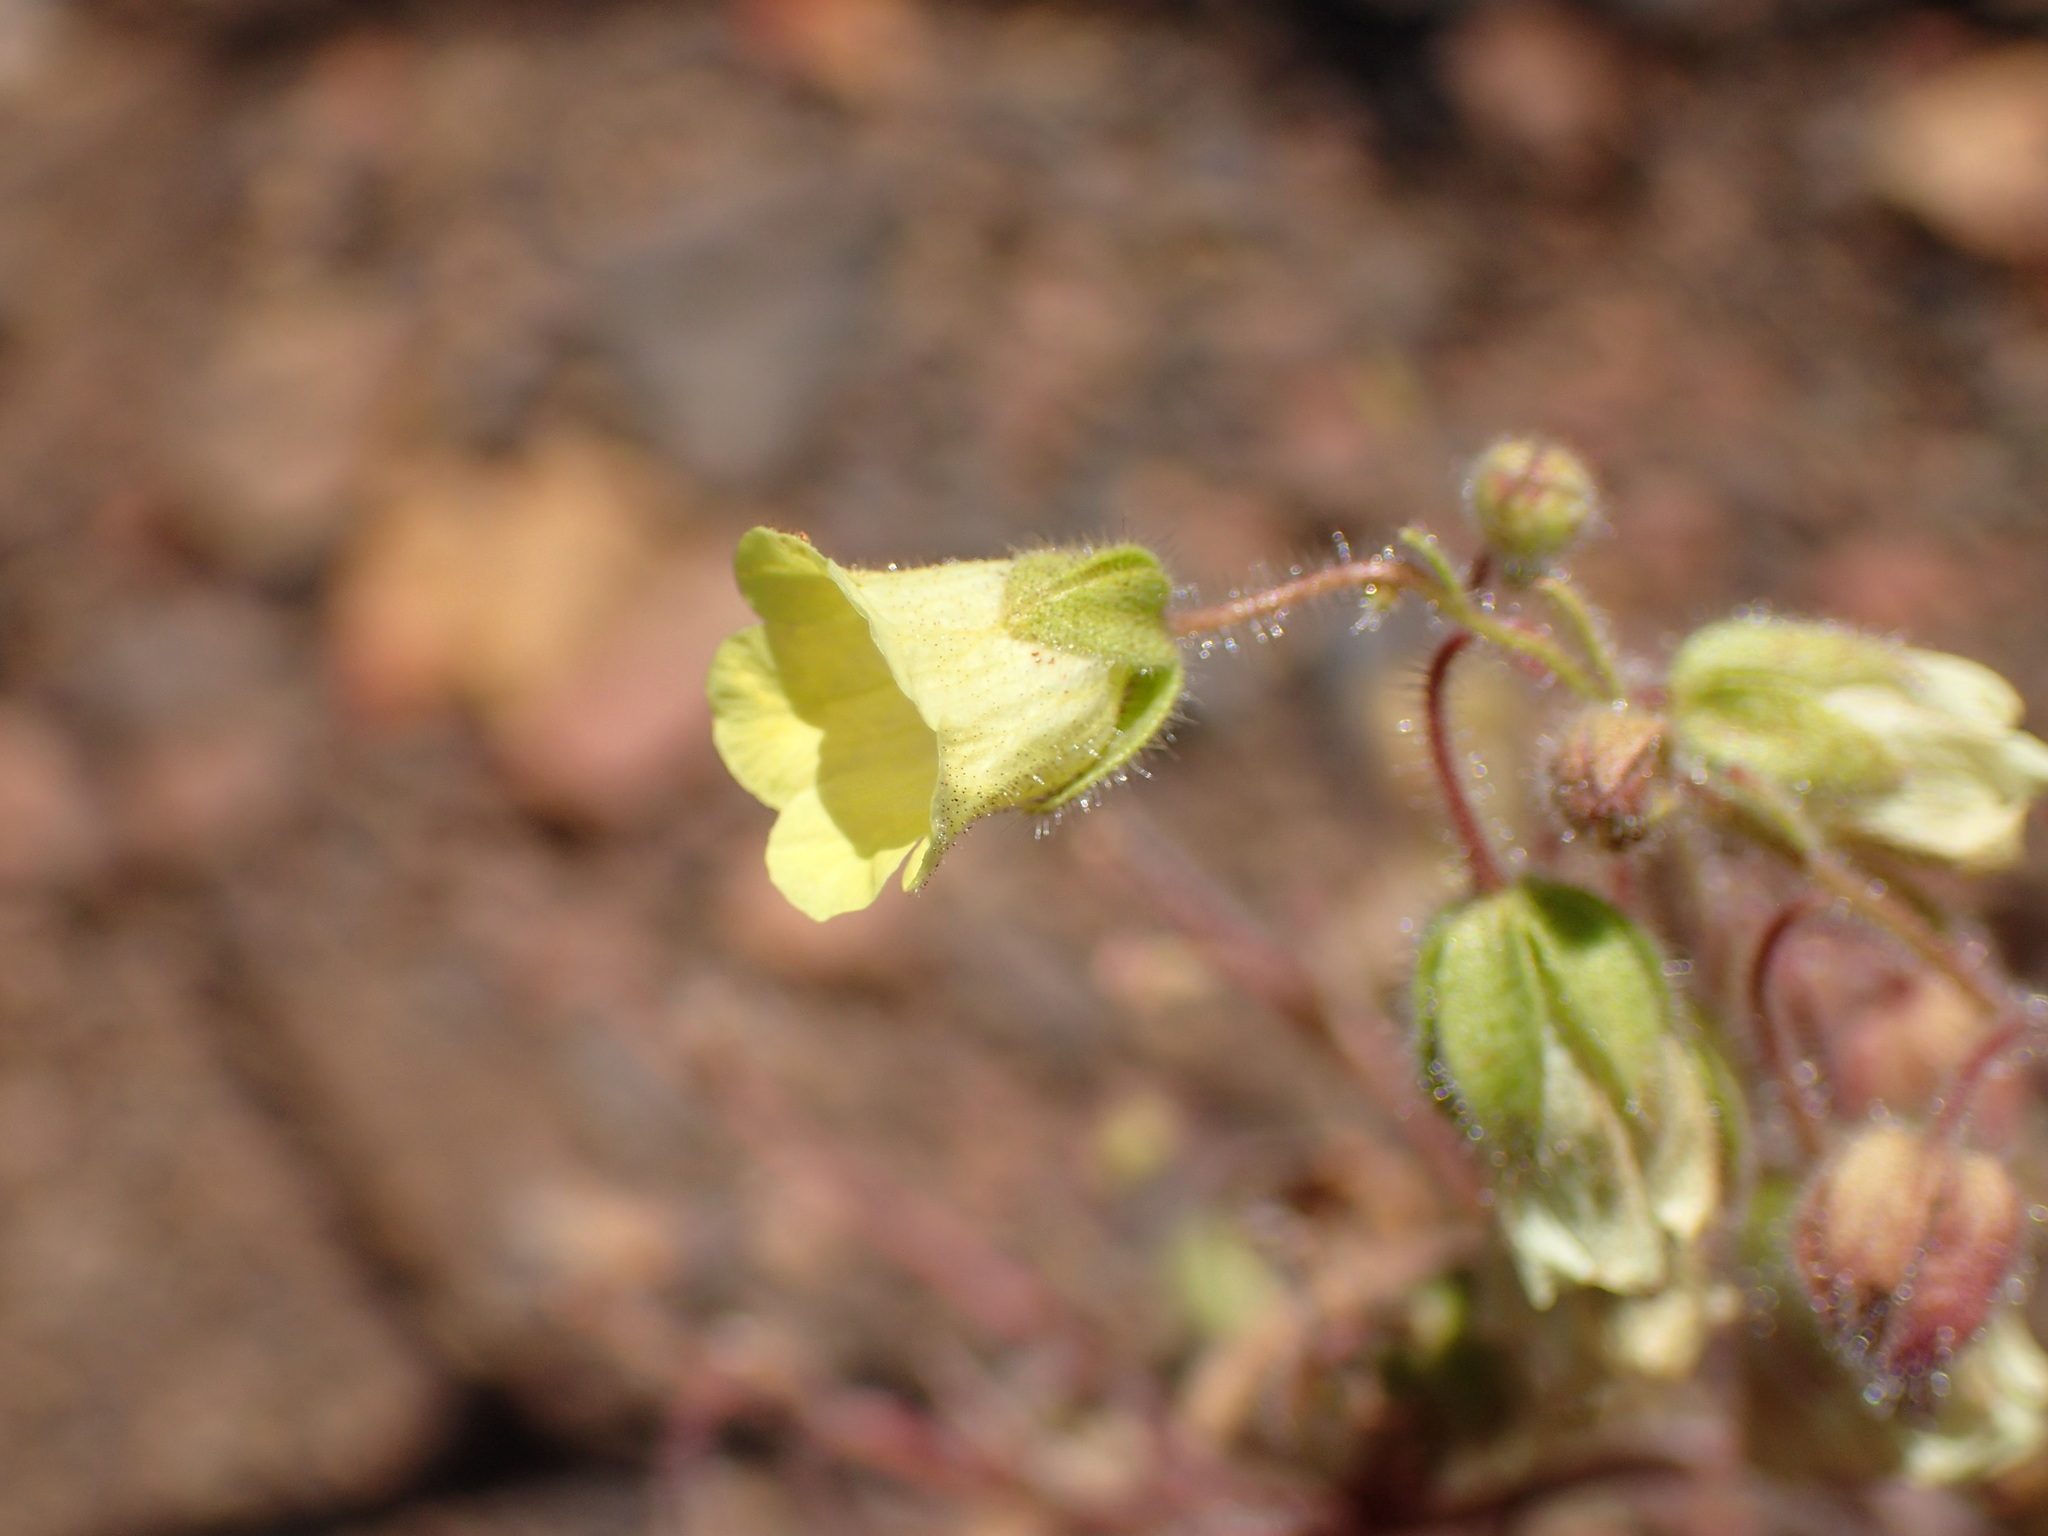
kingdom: Plantae
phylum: Tracheophyta
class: Magnoliopsida
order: Boraginales
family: Hydrophyllaceae
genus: Emmenanthe
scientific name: Emmenanthe penduliflora
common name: Whispering-bells
